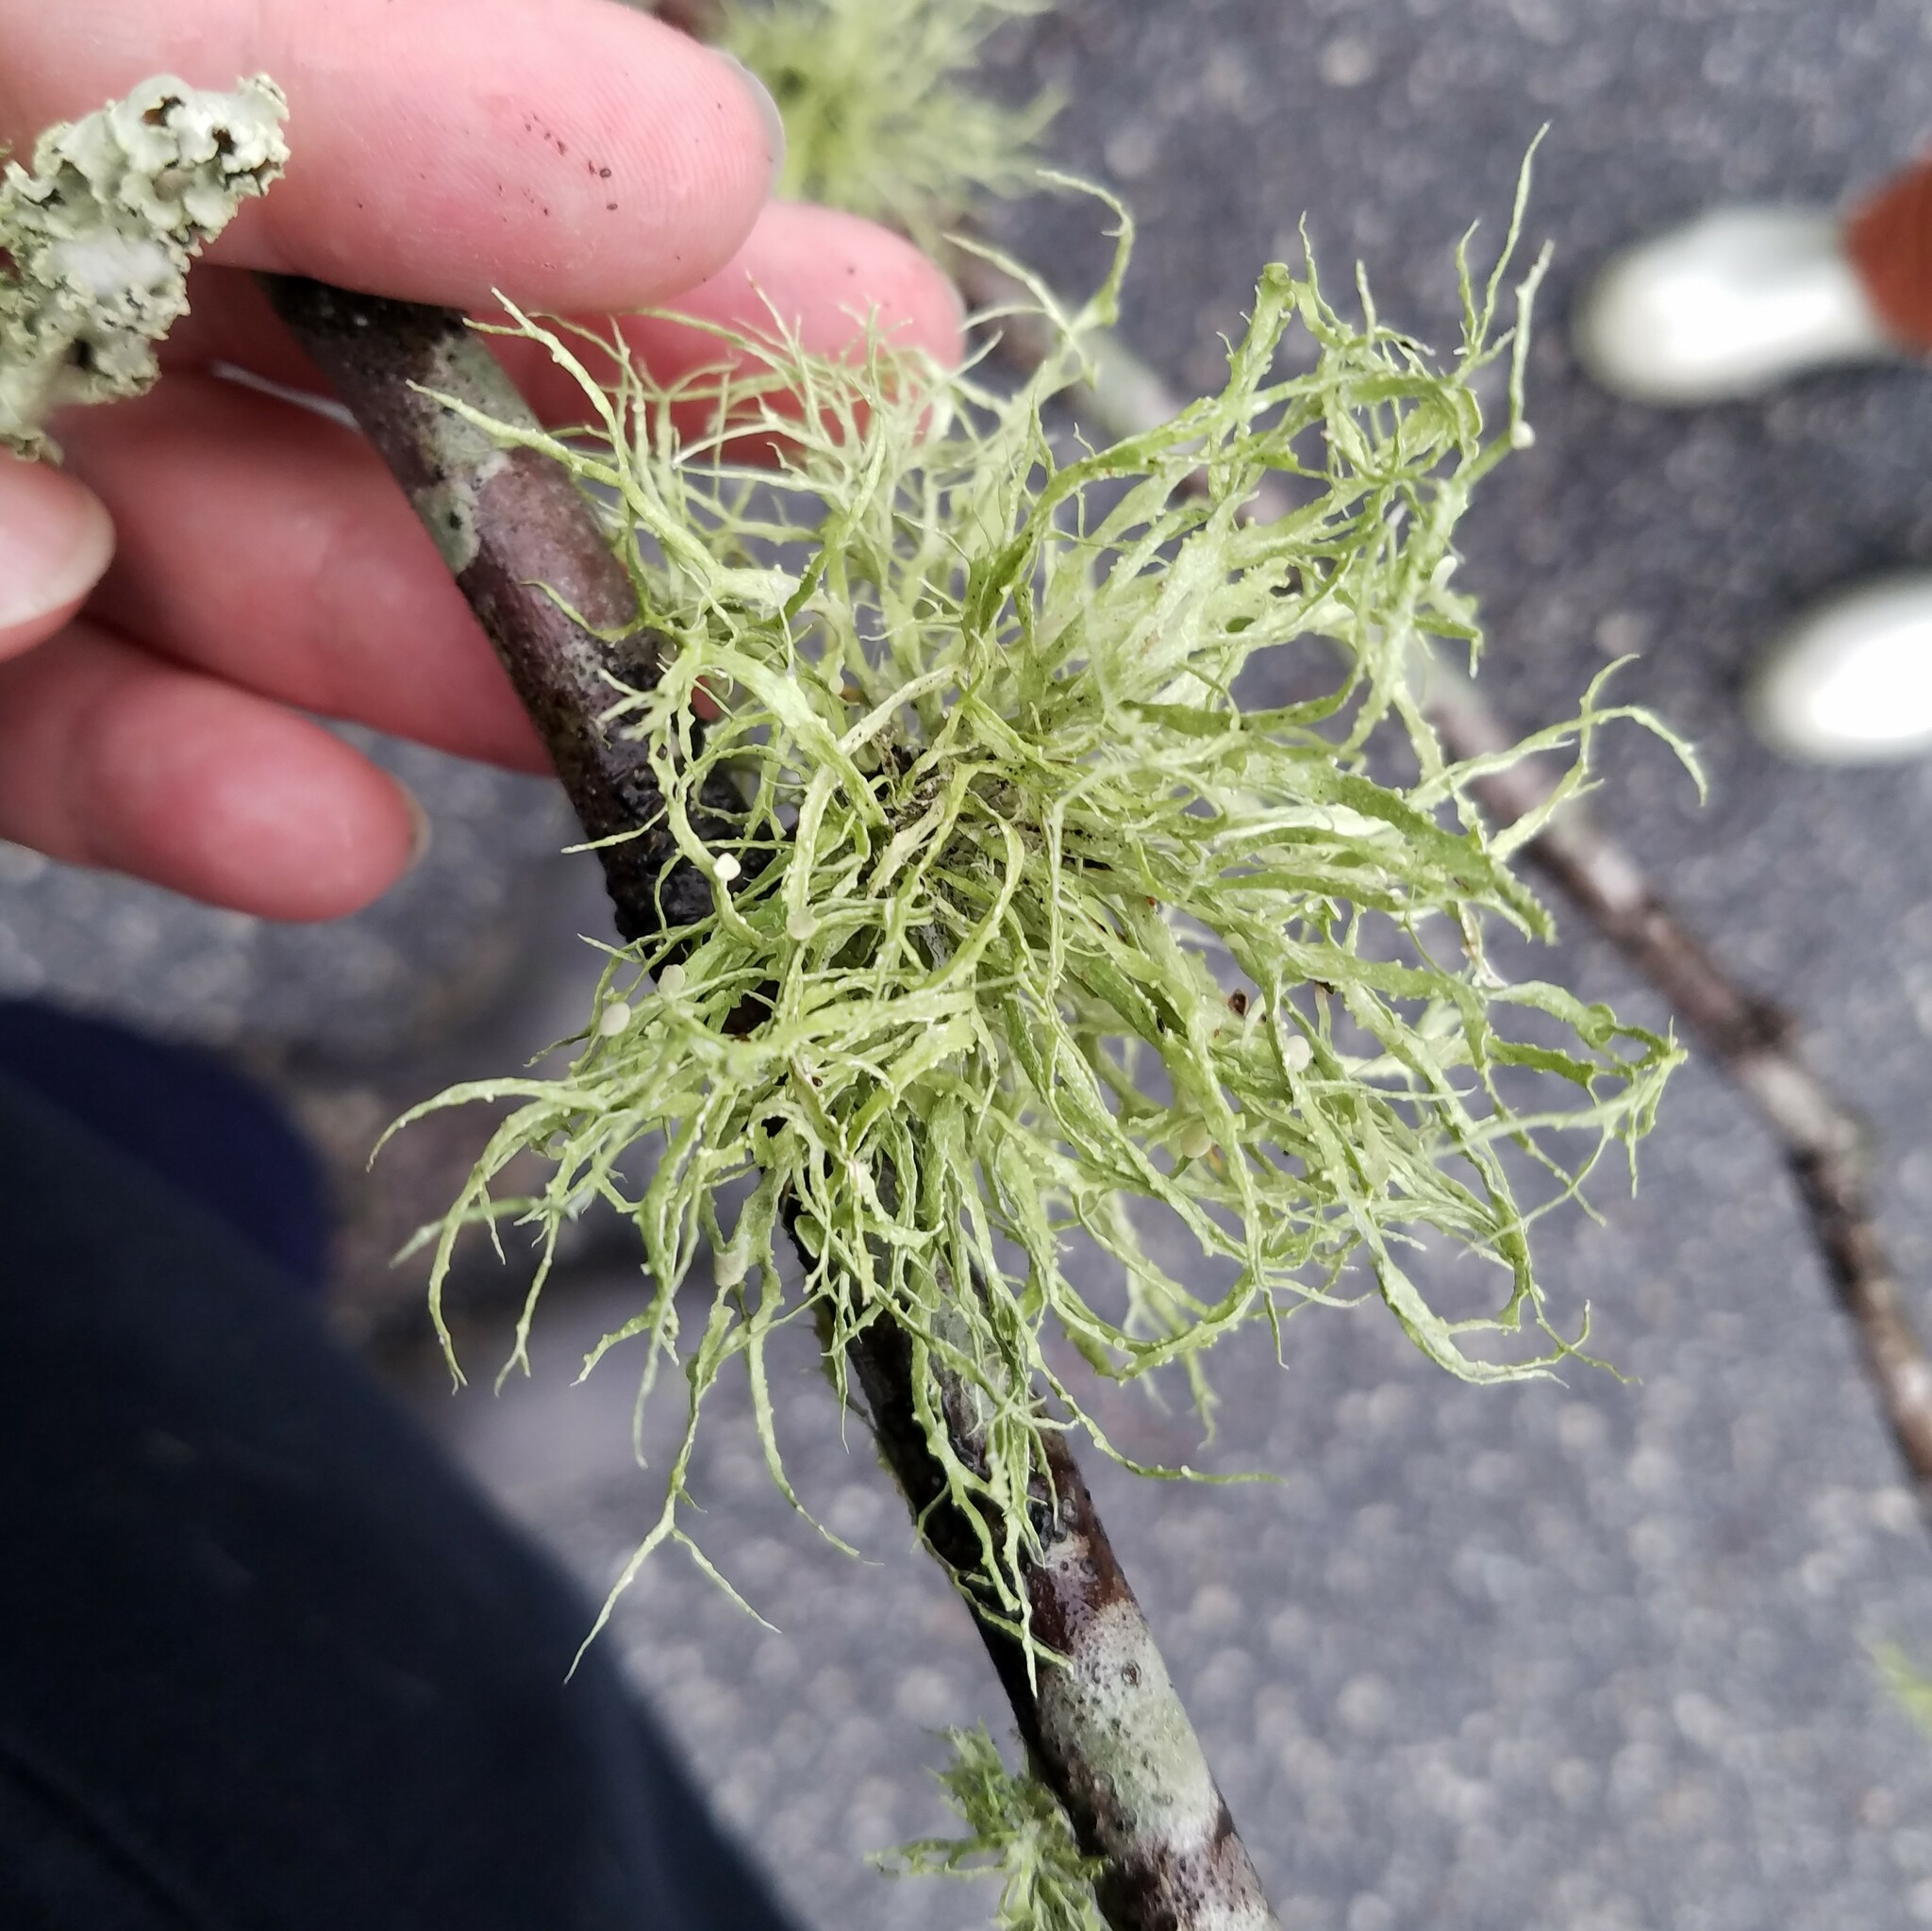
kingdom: Fungi
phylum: Ascomycota
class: Lecanoromycetes
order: Lecanorales
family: Ramalinaceae
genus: Ramalina
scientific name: Ramalina stenospora
